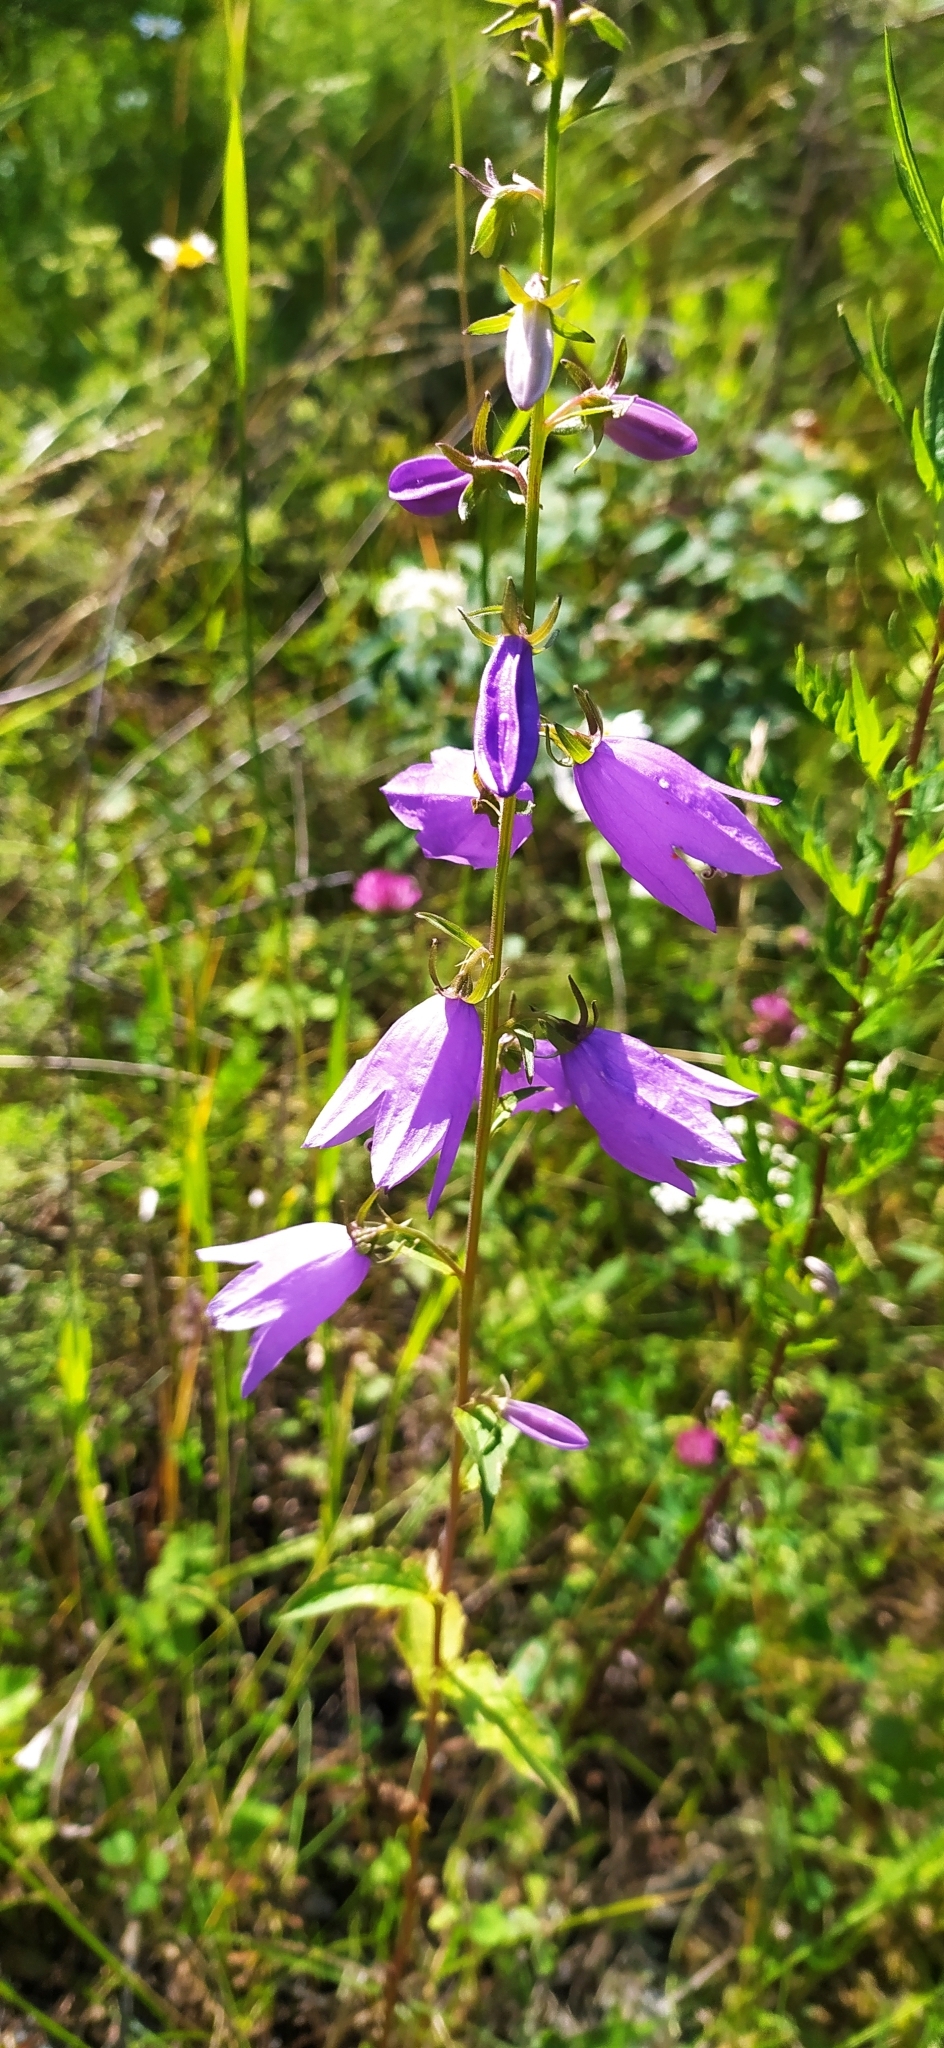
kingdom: Plantae
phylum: Tracheophyta
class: Magnoliopsida
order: Asterales
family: Campanulaceae
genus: Campanula
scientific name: Campanula rapunculoides
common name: Creeping bellflower
